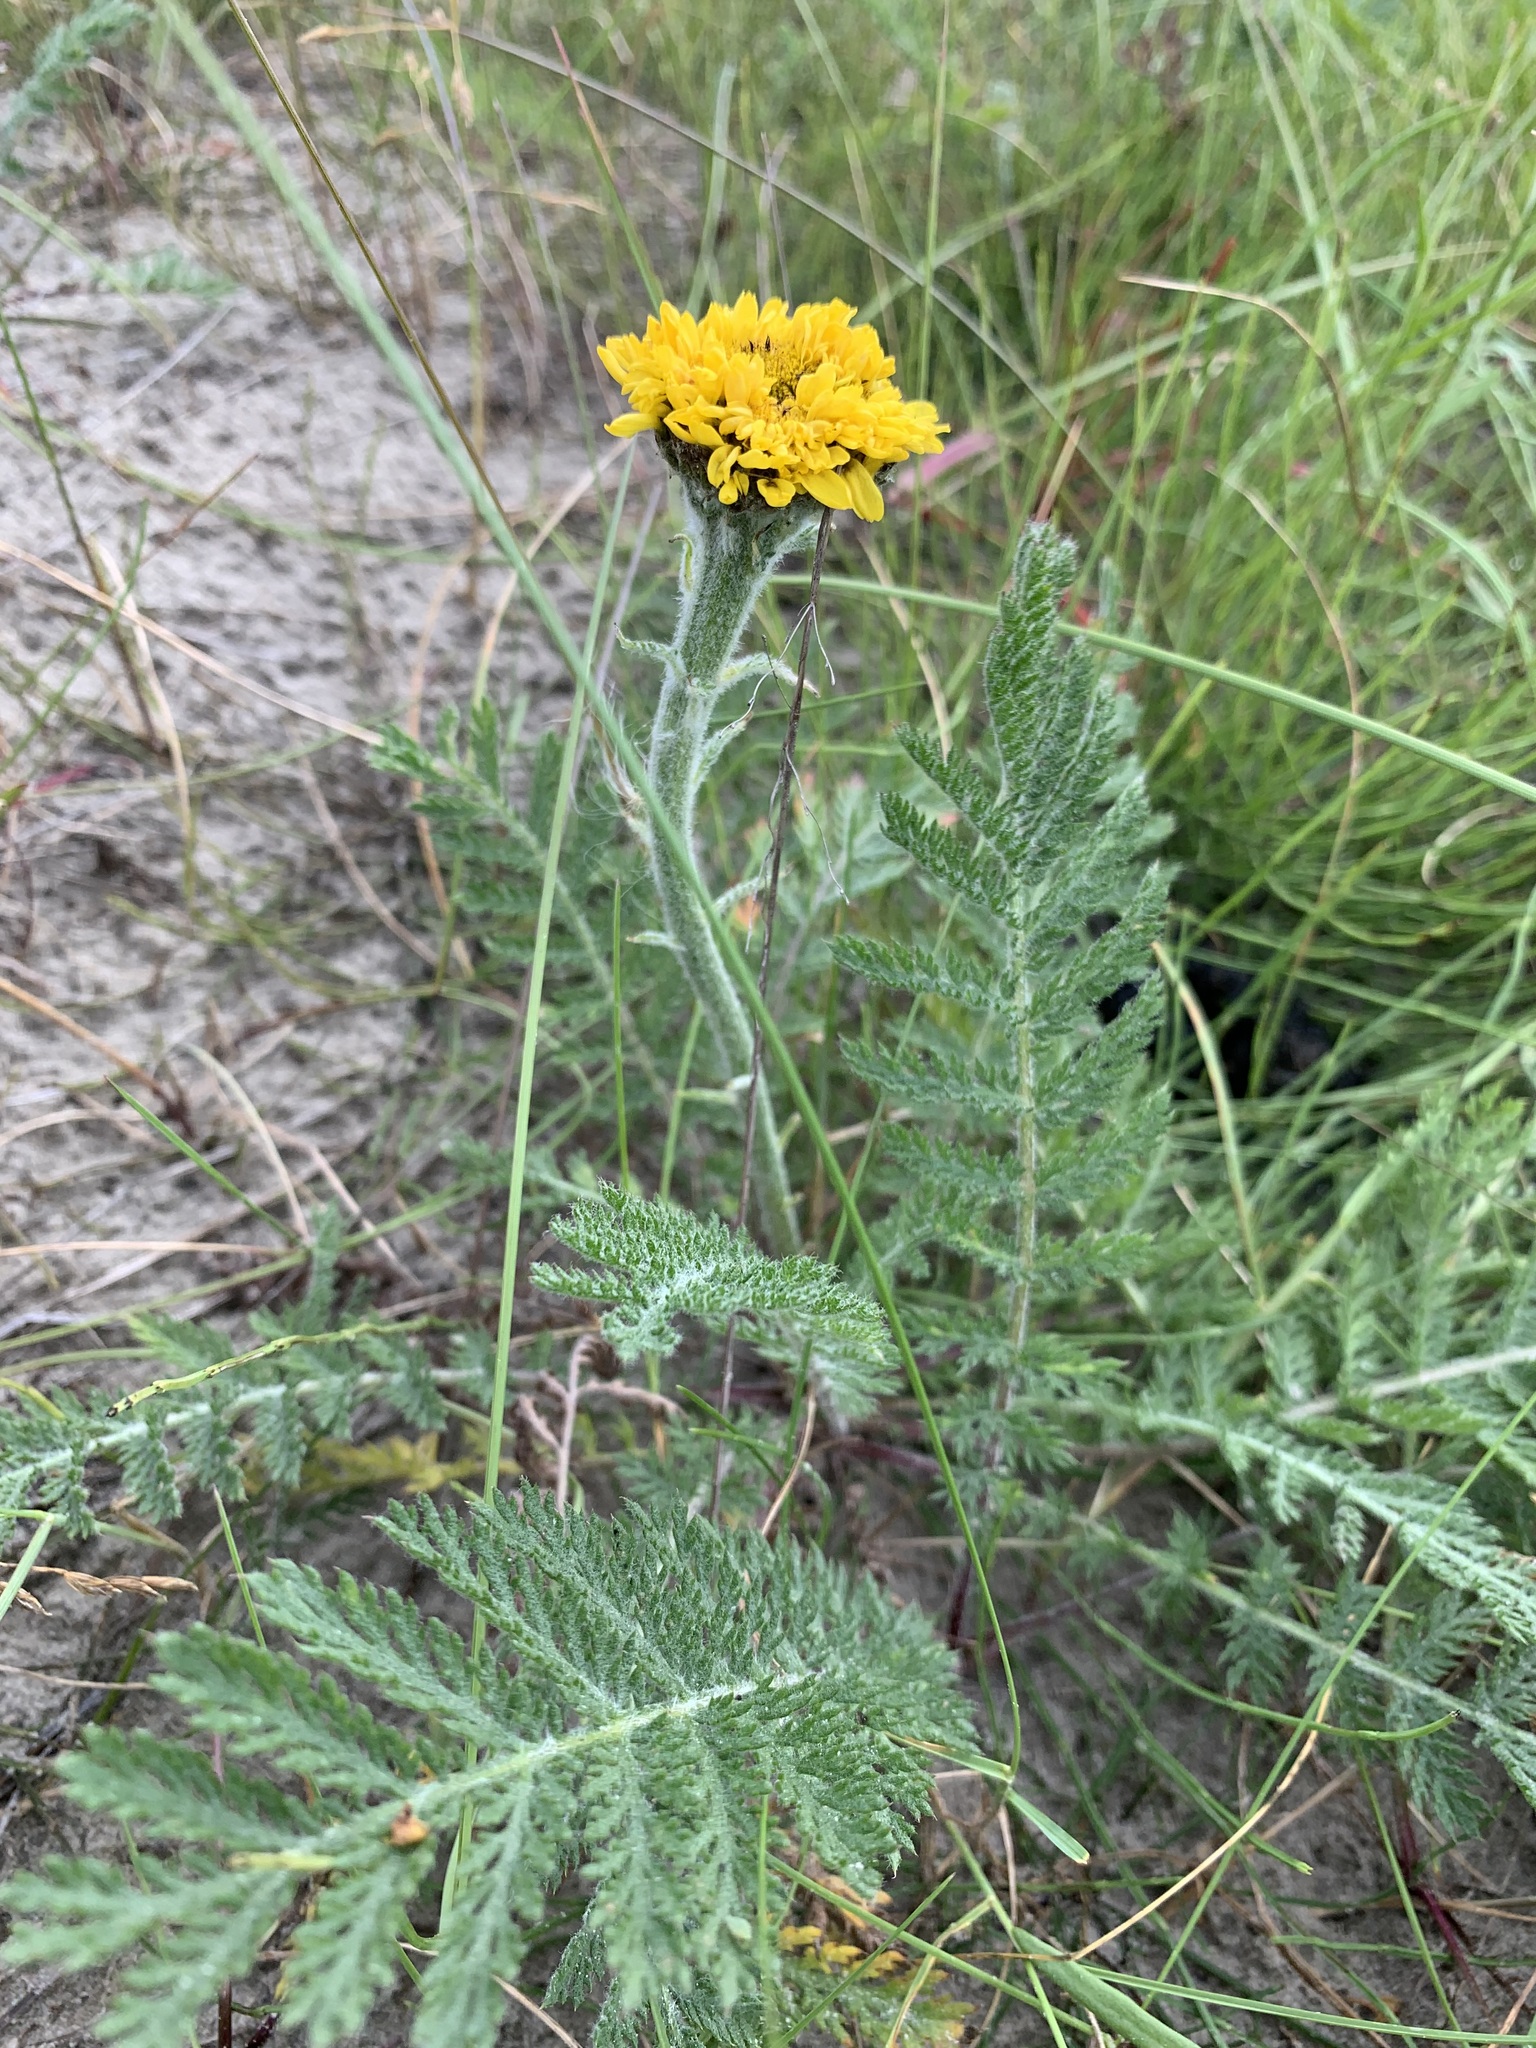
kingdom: Plantae
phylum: Tracheophyta
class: Magnoliopsida
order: Asterales
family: Asteraceae
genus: Tanacetum
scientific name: Tanacetum bipinnatum
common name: Dwarf tansy
